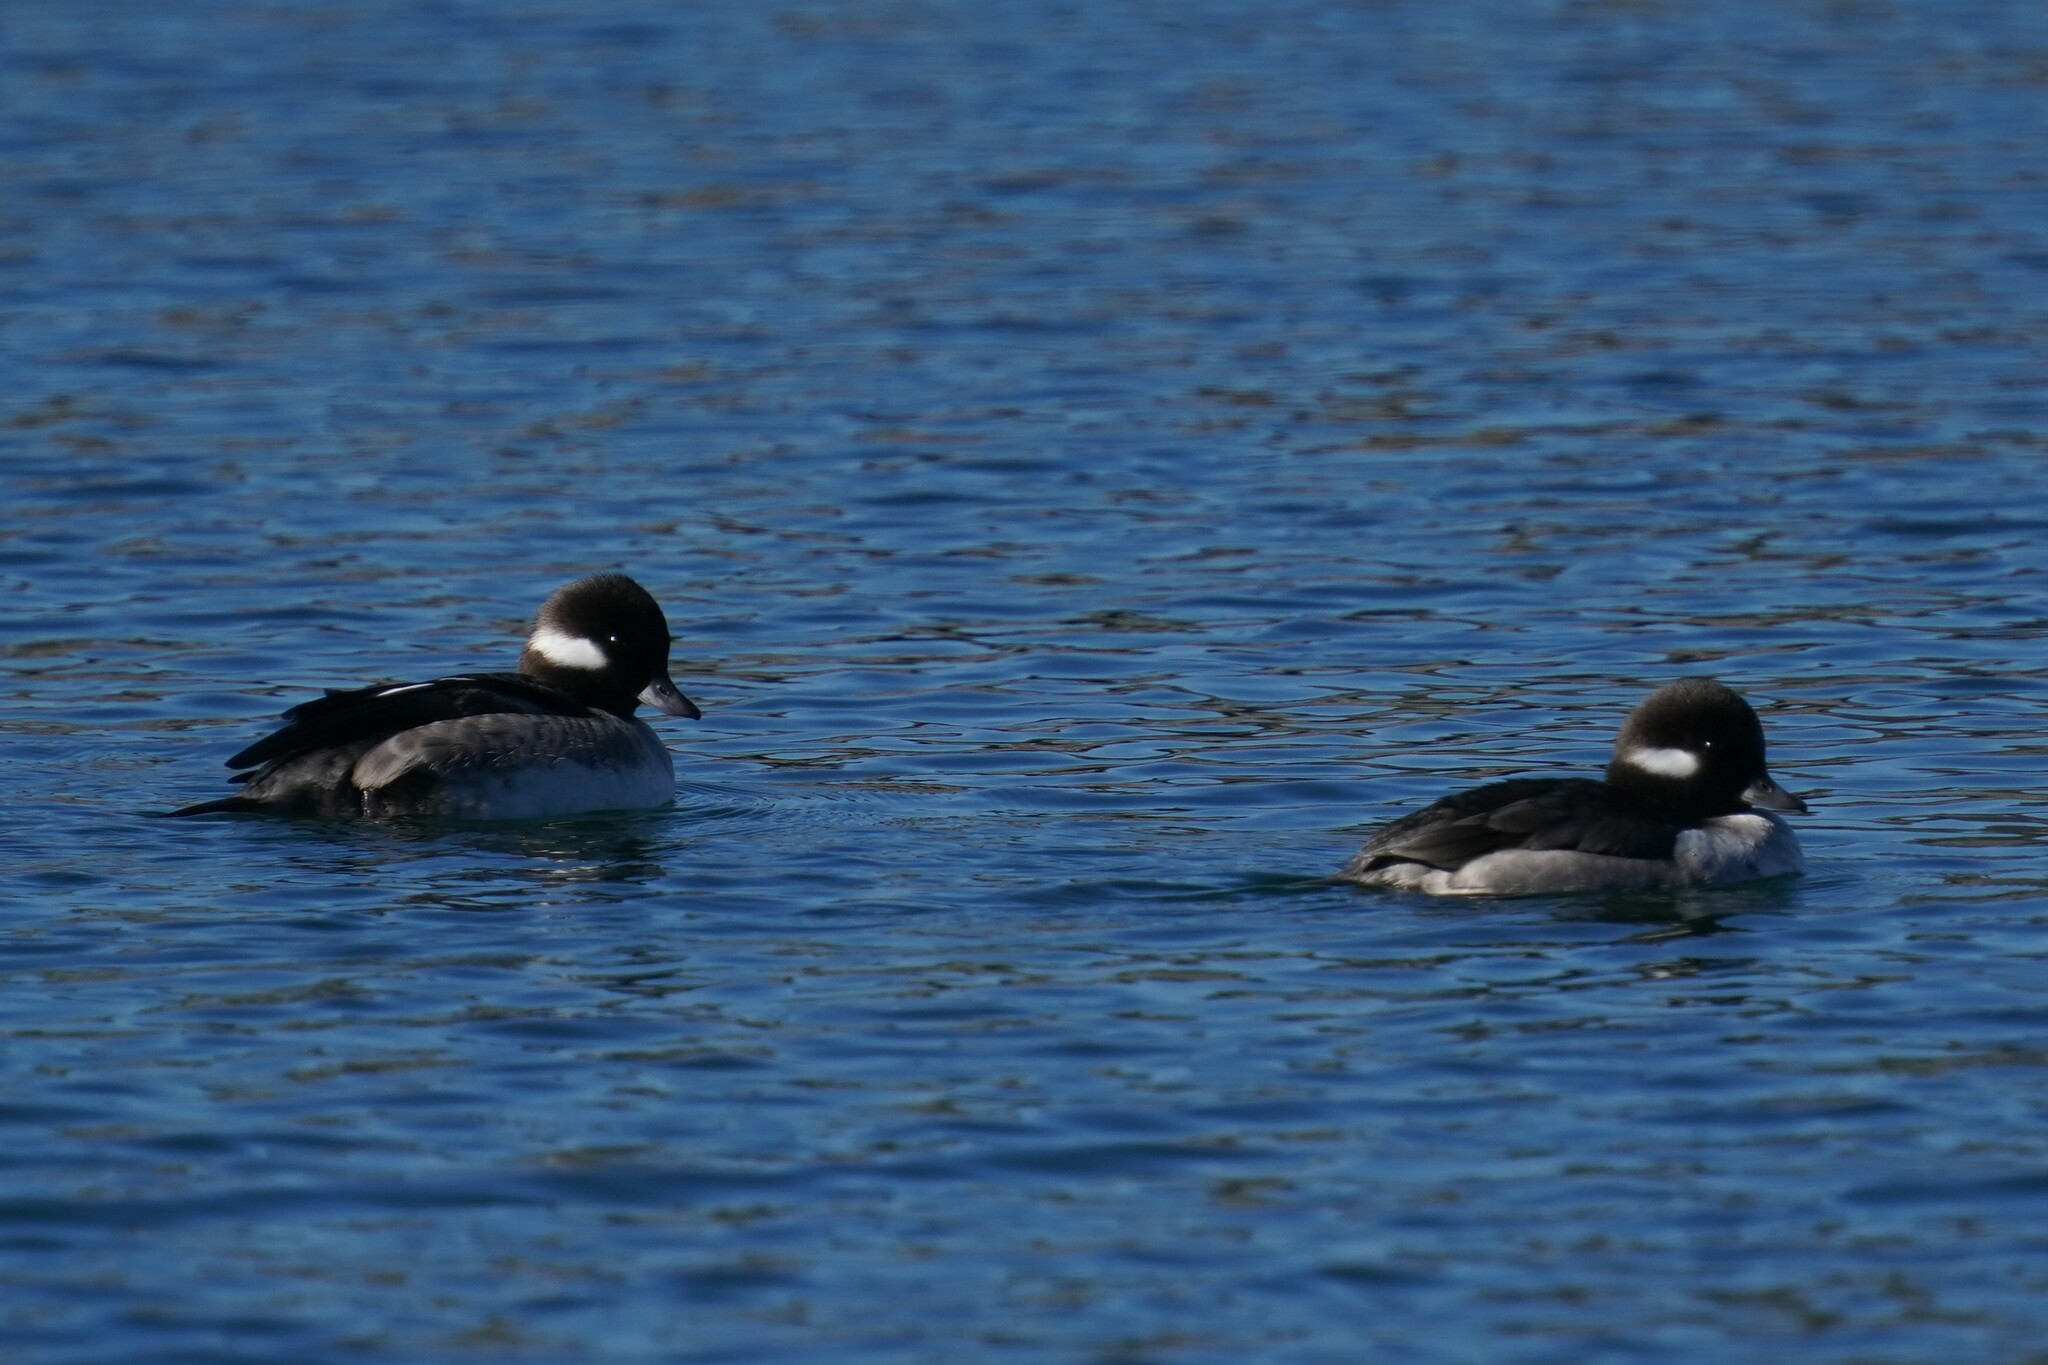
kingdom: Animalia
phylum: Chordata
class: Aves
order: Anseriformes
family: Anatidae
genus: Bucephala
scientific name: Bucephala albeola
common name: Bufflehead
